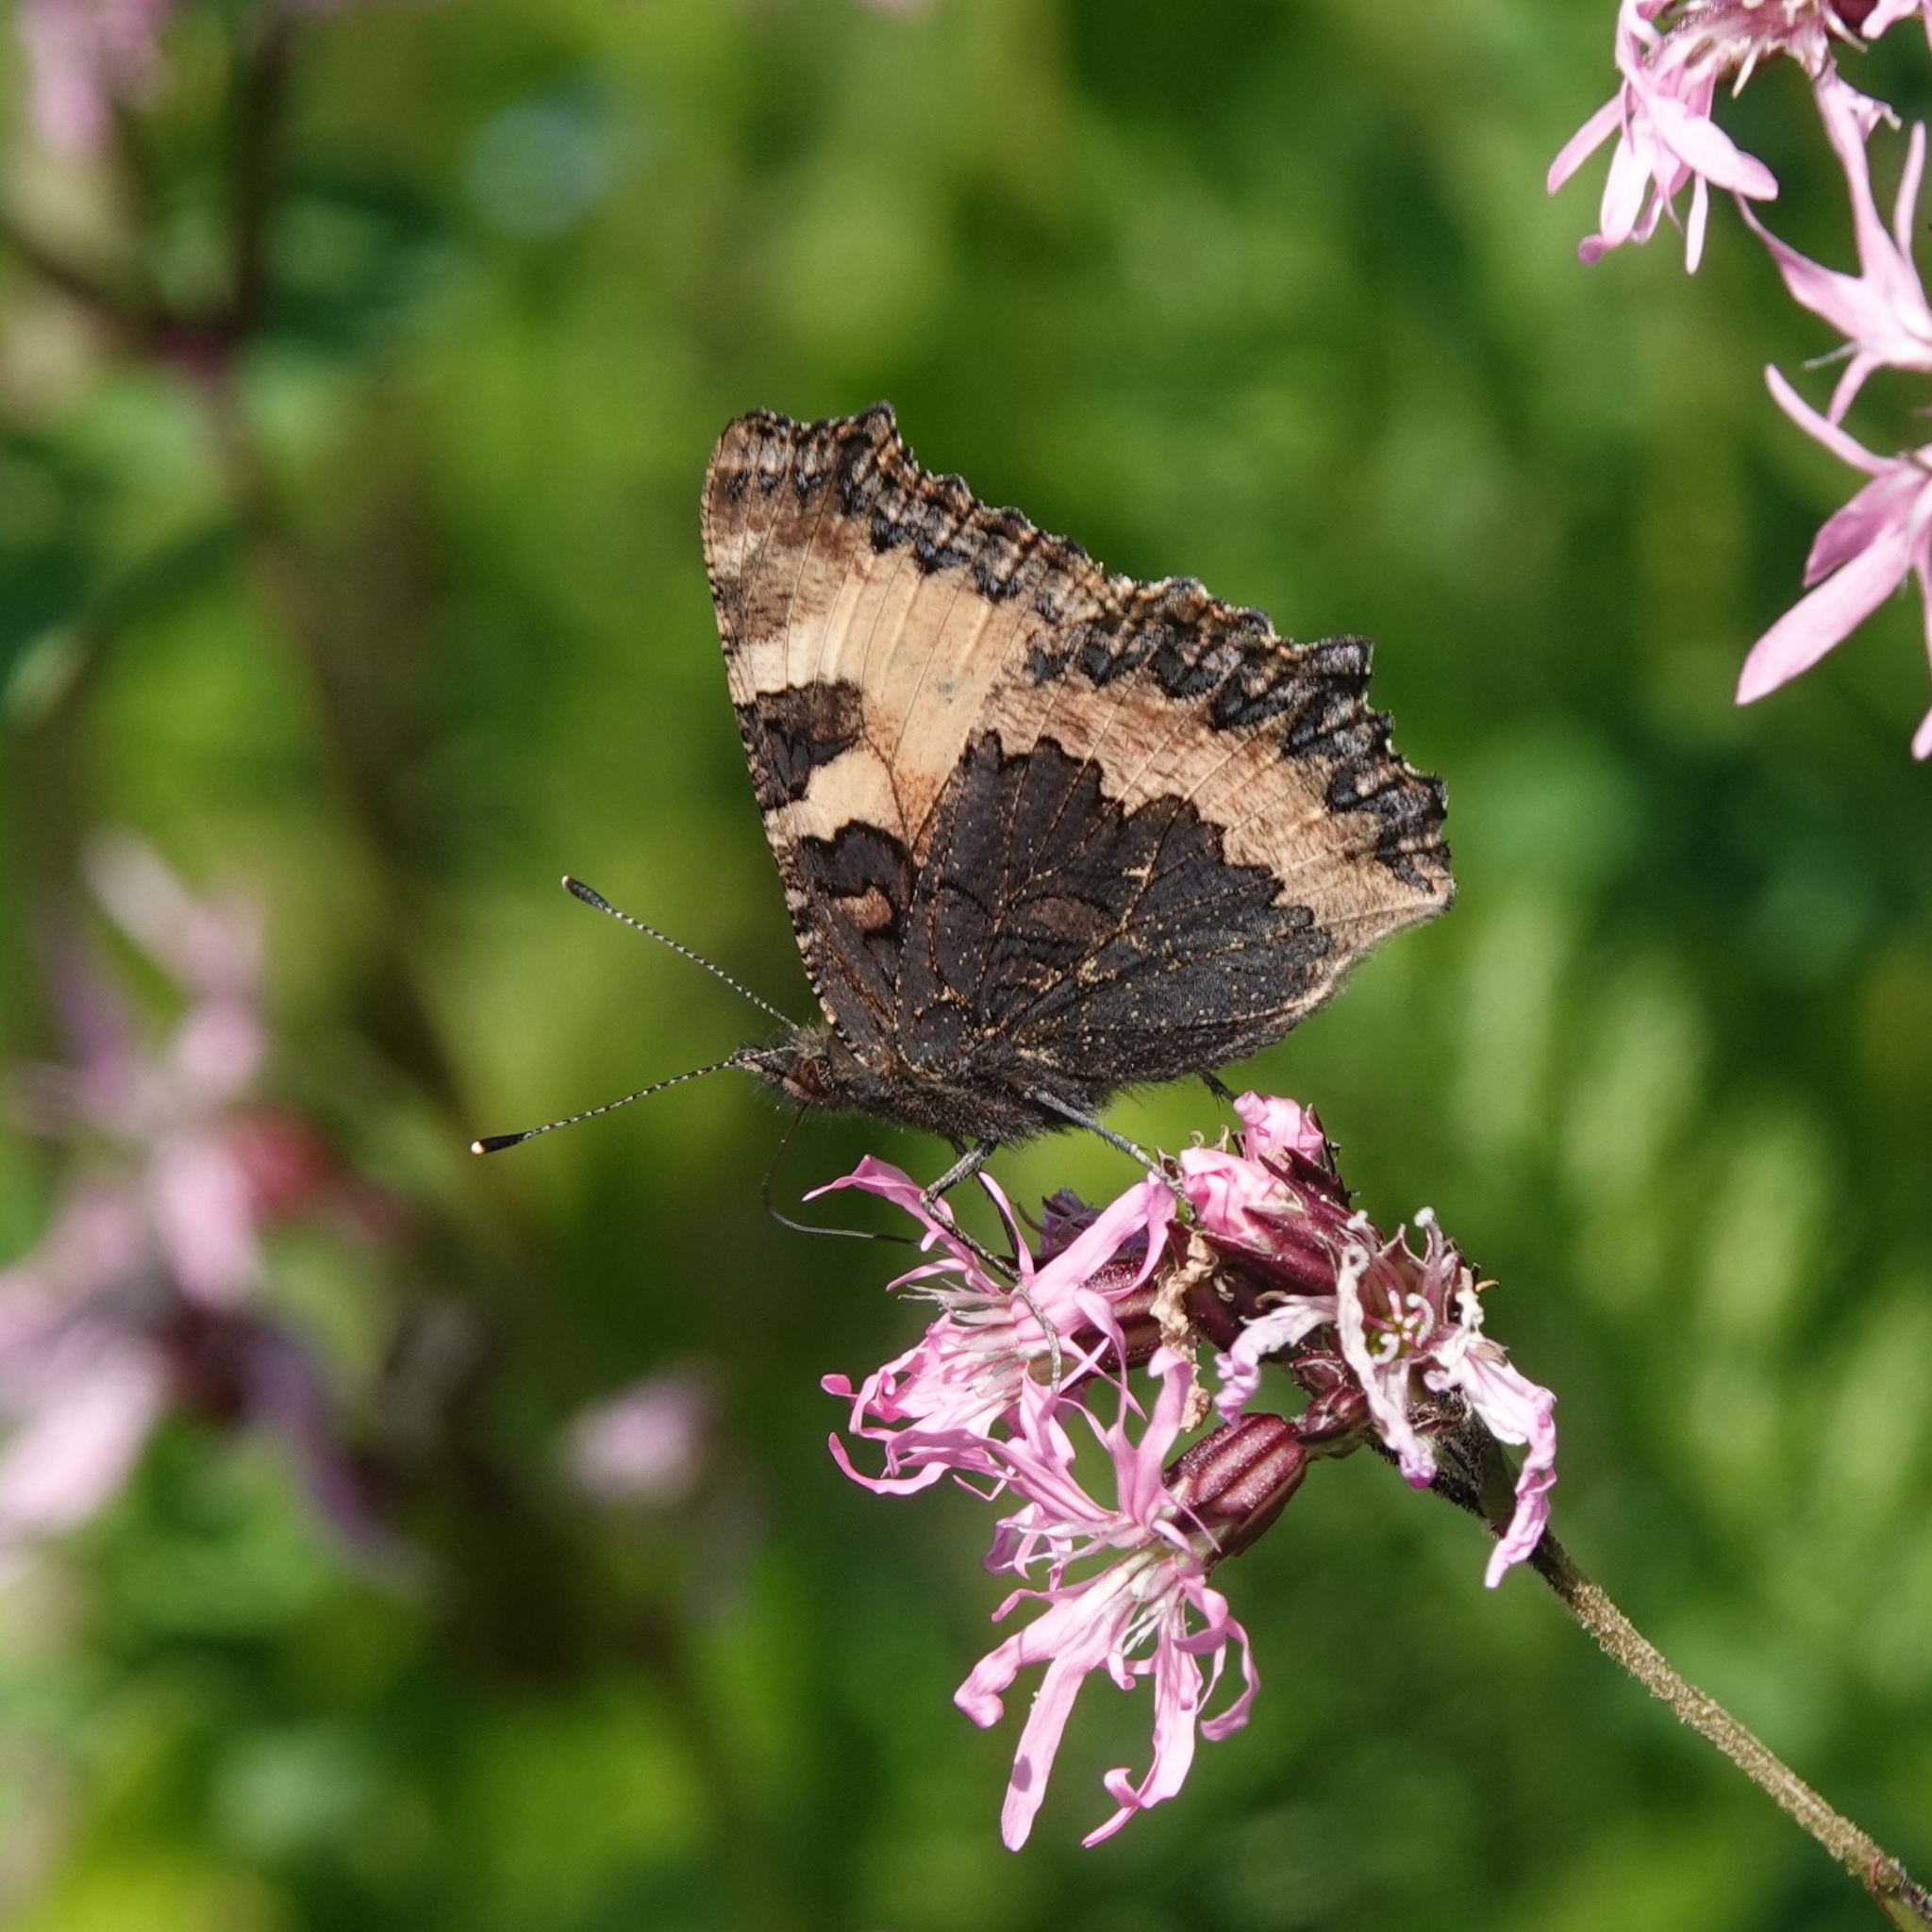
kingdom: Animalia
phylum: Arthropoda
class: Insecta
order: Lepidoptera
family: Nymphalidae
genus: Aglais
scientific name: Aglais urticae
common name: Small tortoiseshell
